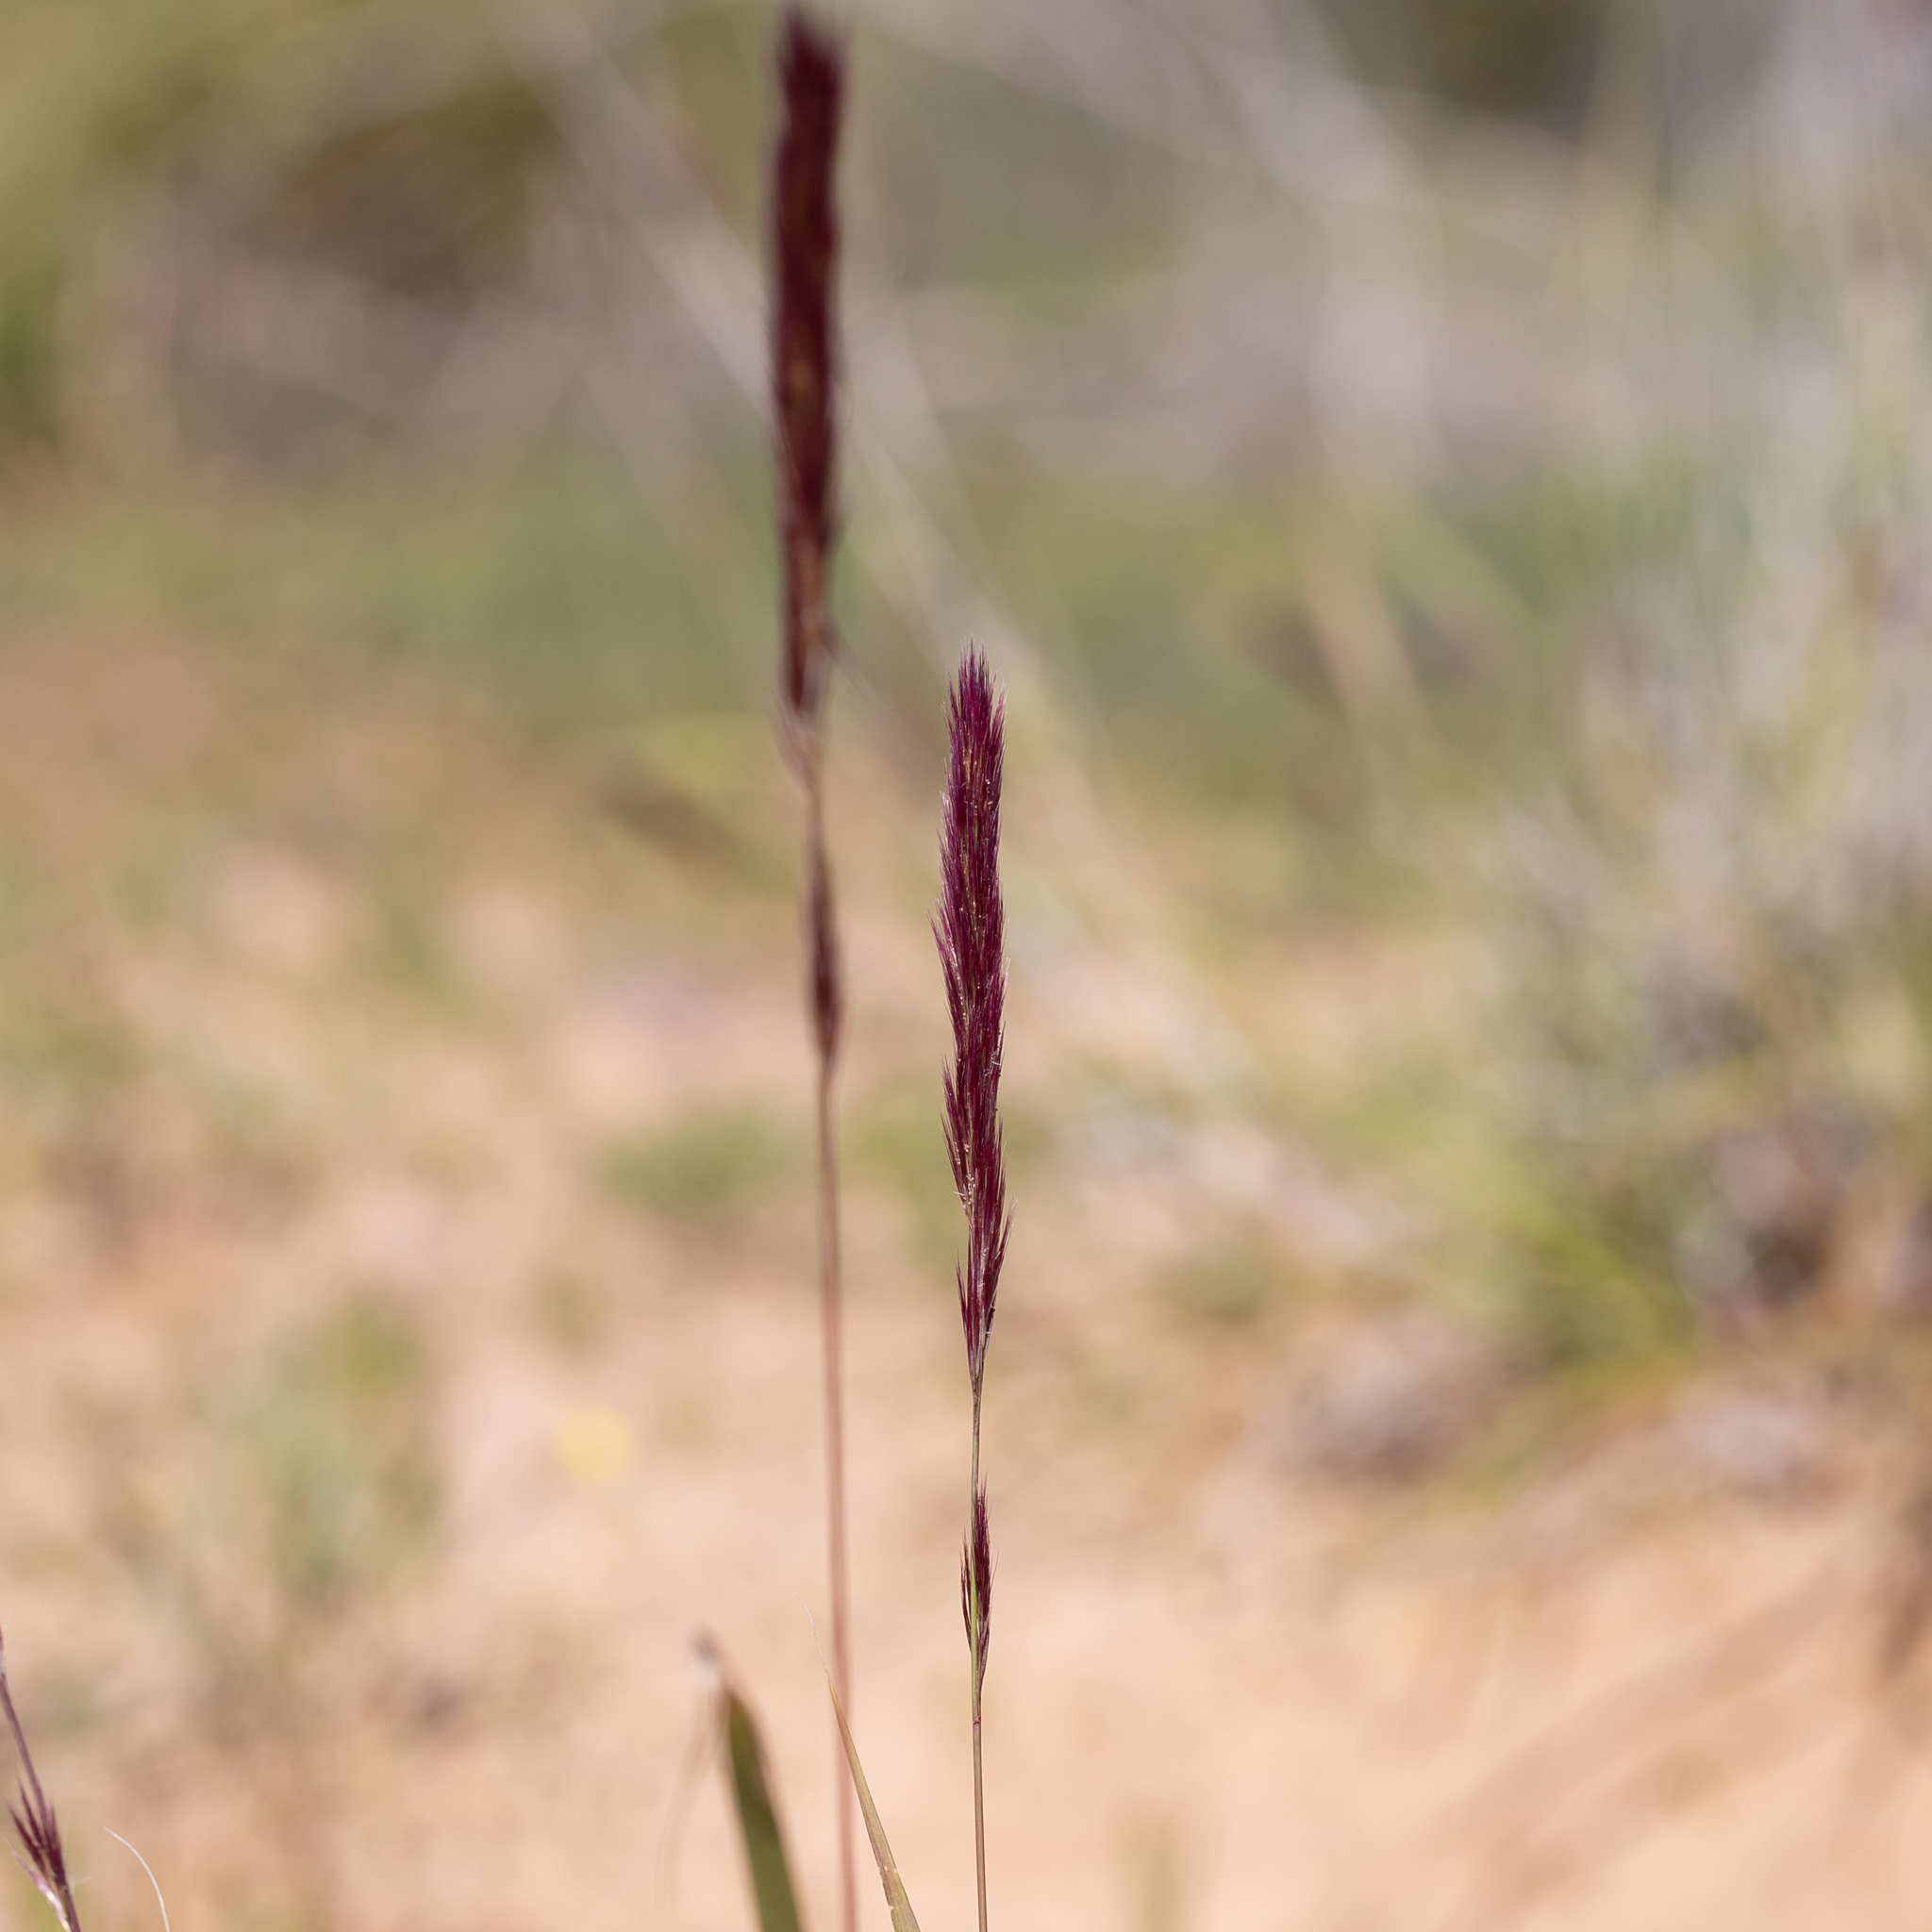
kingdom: Plantae
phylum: Tracheophyta
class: Liliopsida
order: Poales
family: Poaceae
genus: Triraphis
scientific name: Triraphis mollis
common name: Purple needlegrass
